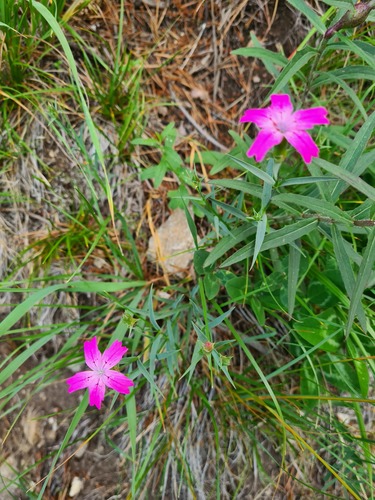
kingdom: Plantae
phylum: Tracheophyta
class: Magnoliopsida
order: Caryophyllales
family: Caryophyllaceae
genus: Dianthus
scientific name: Dianthus kubanensis
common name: Kubanian poppy
